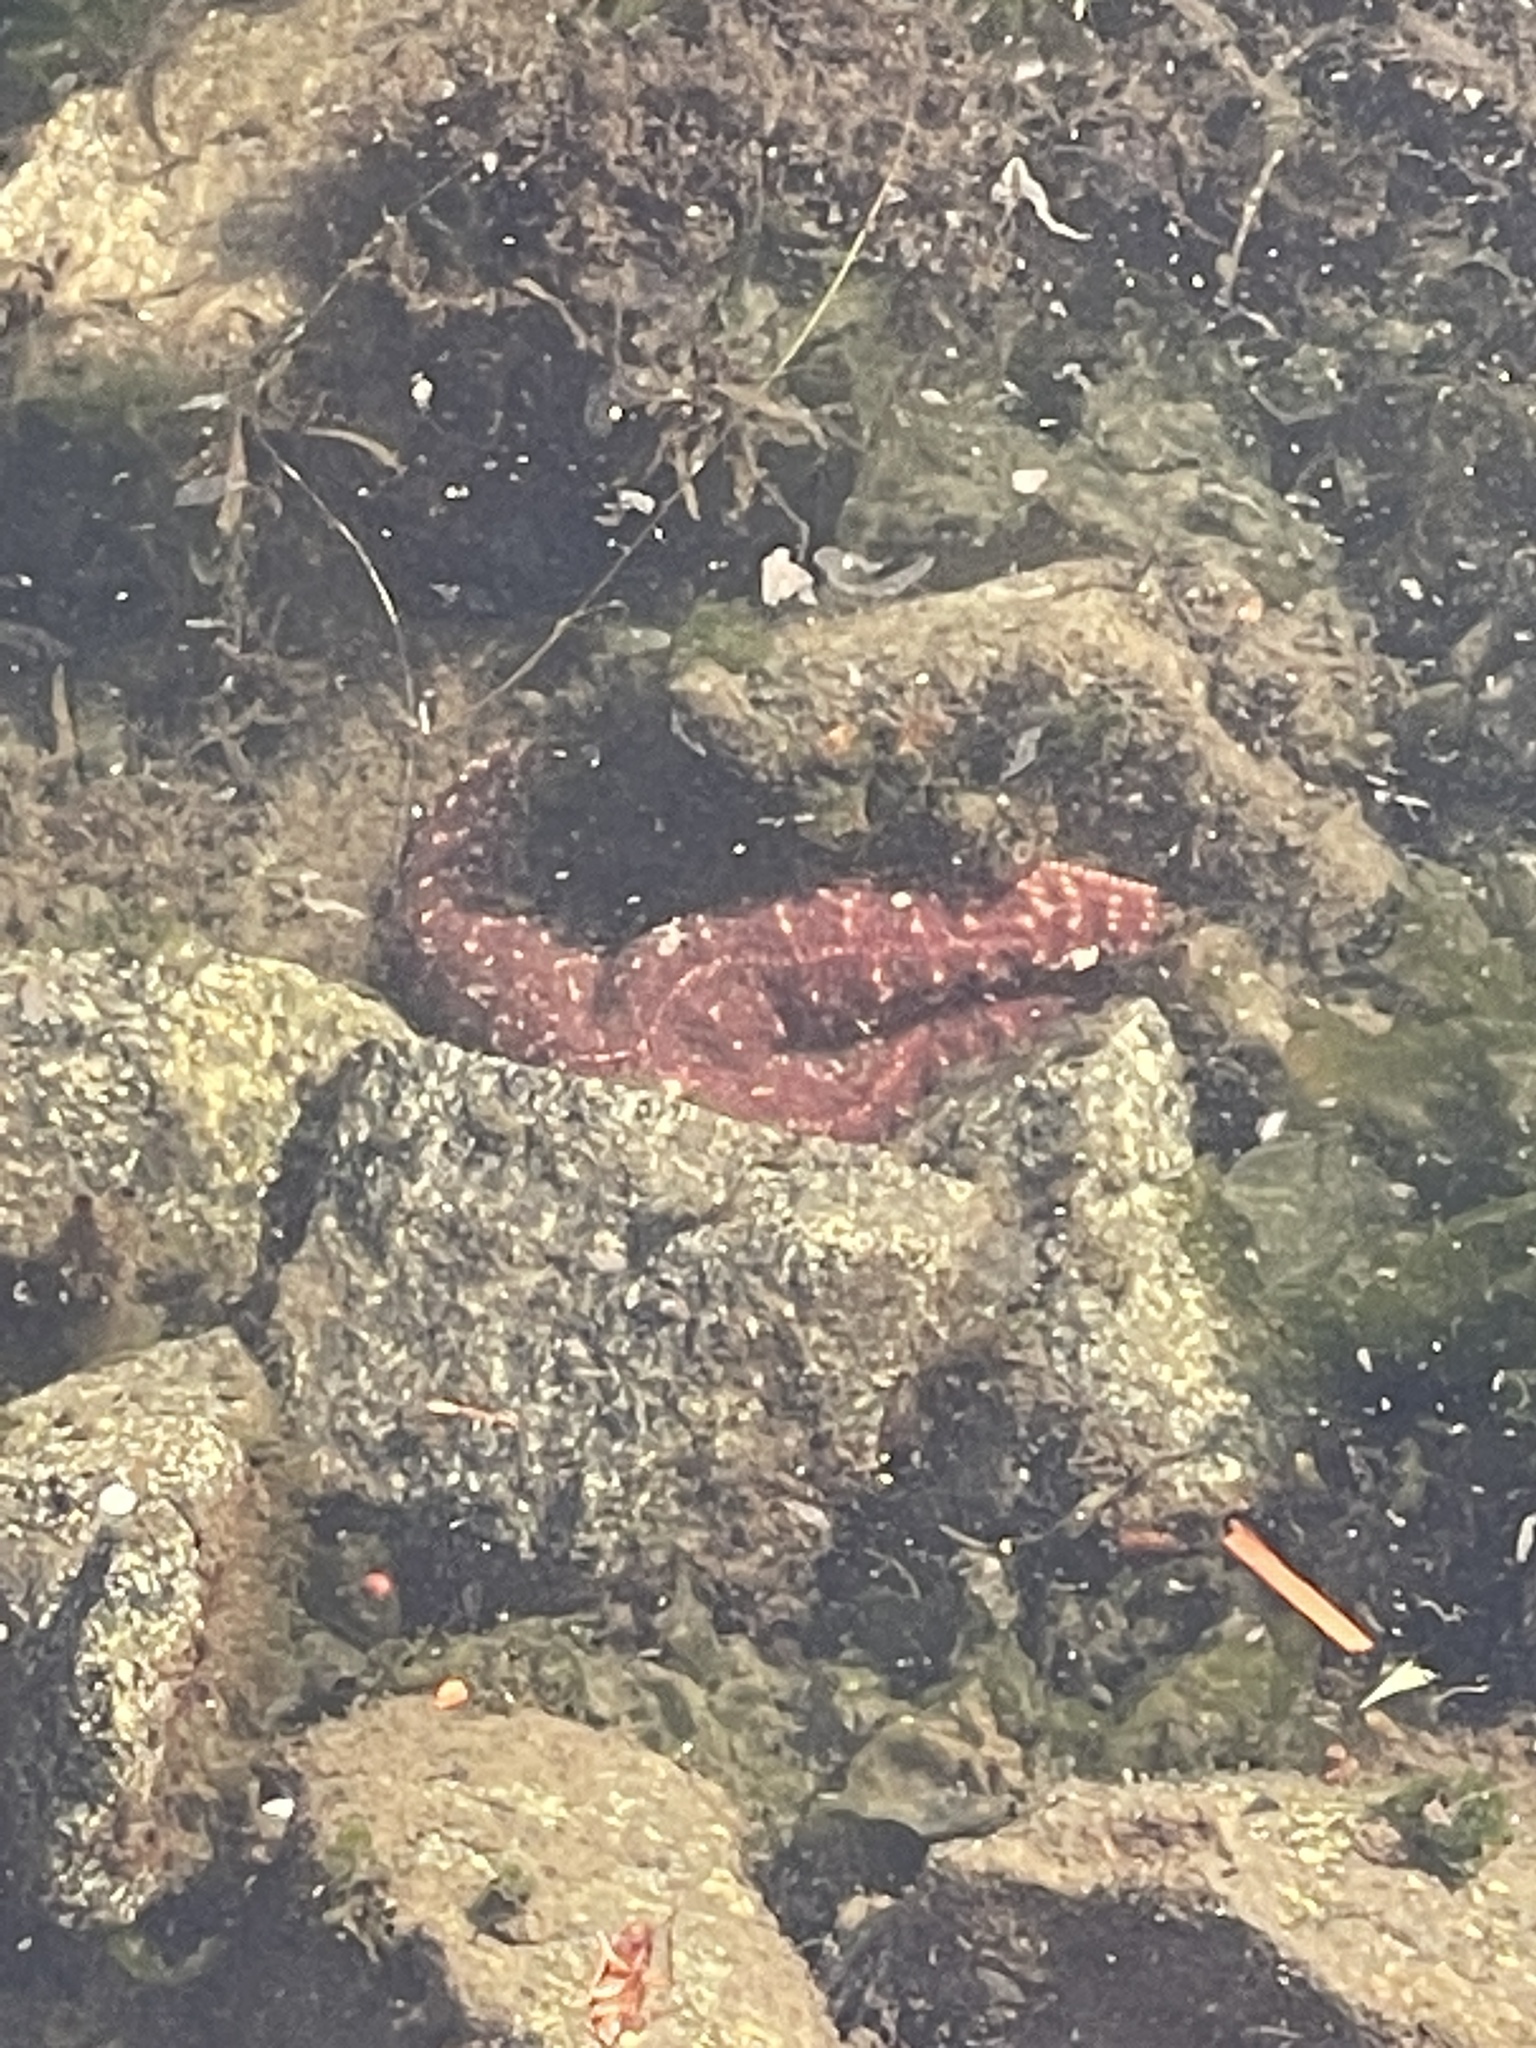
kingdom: Animalia
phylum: Echinodermata
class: Asteroidea
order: Forcipulatida
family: Asteriidae
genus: Pisaster
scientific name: Pisaster ochraceus
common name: Ochre stars
